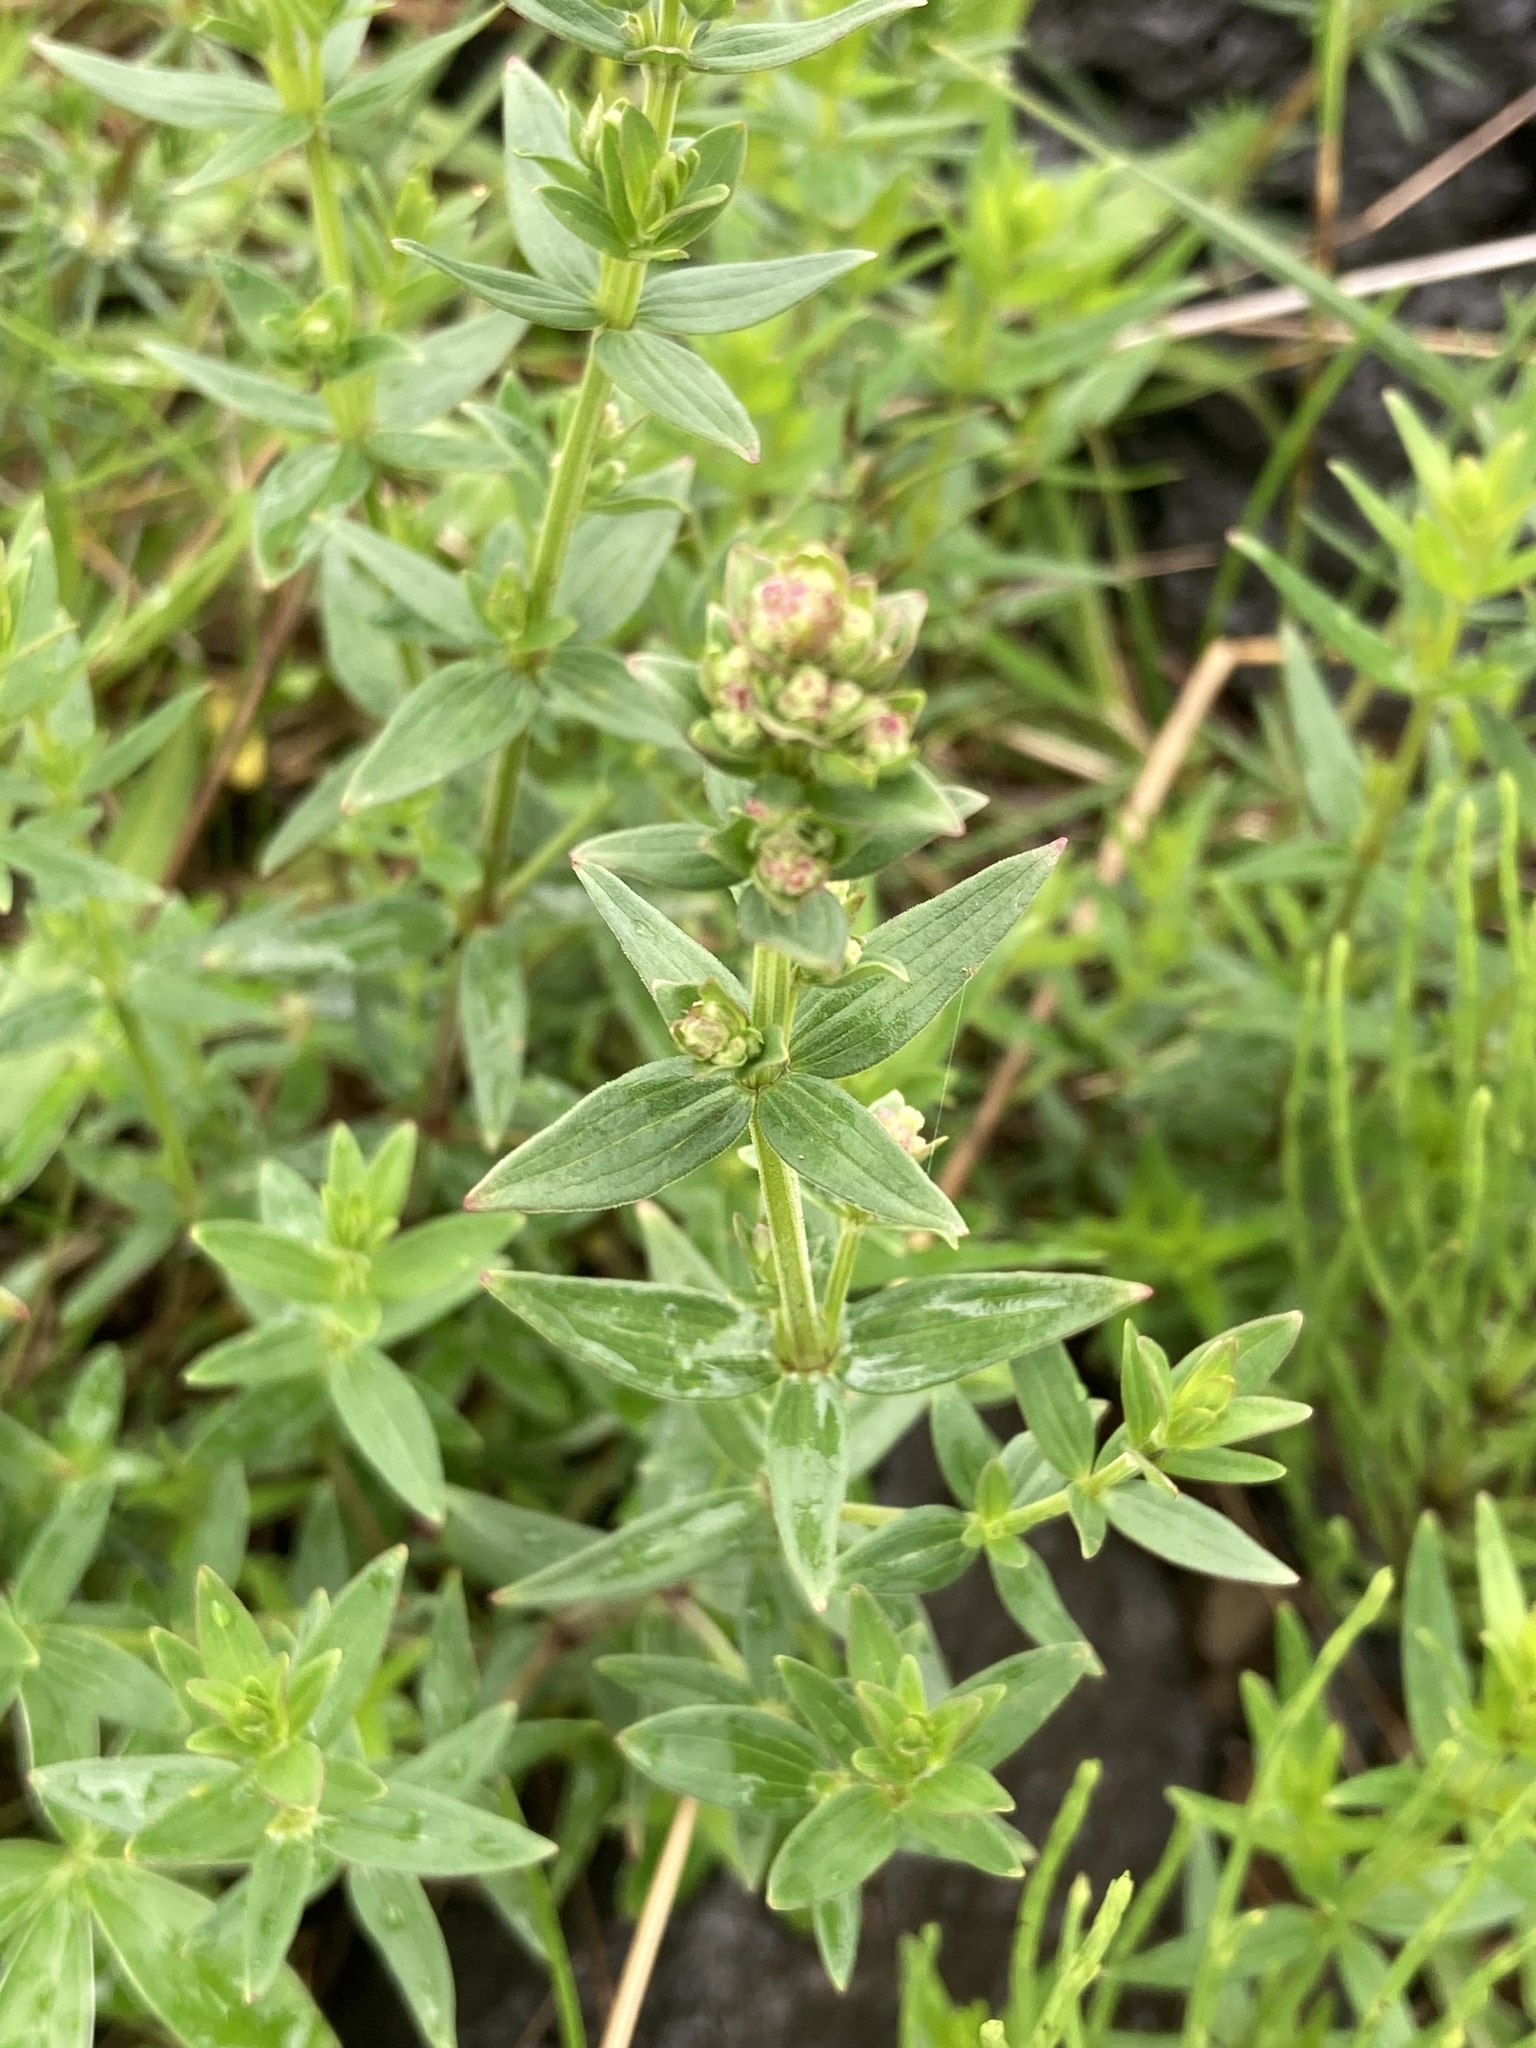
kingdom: Plantae
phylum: Tracheophyta
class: Magnoliopsida
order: Gentianales
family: Rubiaceae
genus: Galium
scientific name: Galium boreale
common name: Northern bedstraw
